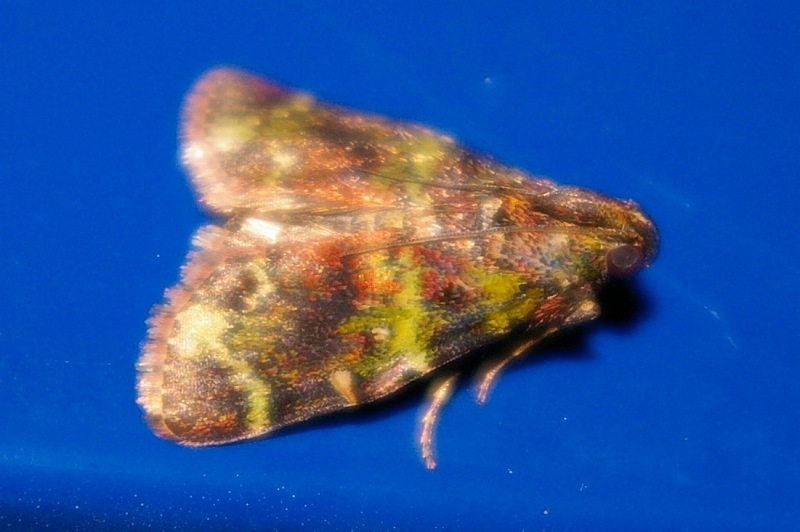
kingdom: Animalia
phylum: Arthropoda
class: Insecta
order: Lepidoptera
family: Pyralidae
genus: Orthaga
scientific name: Orthaga olivacea
